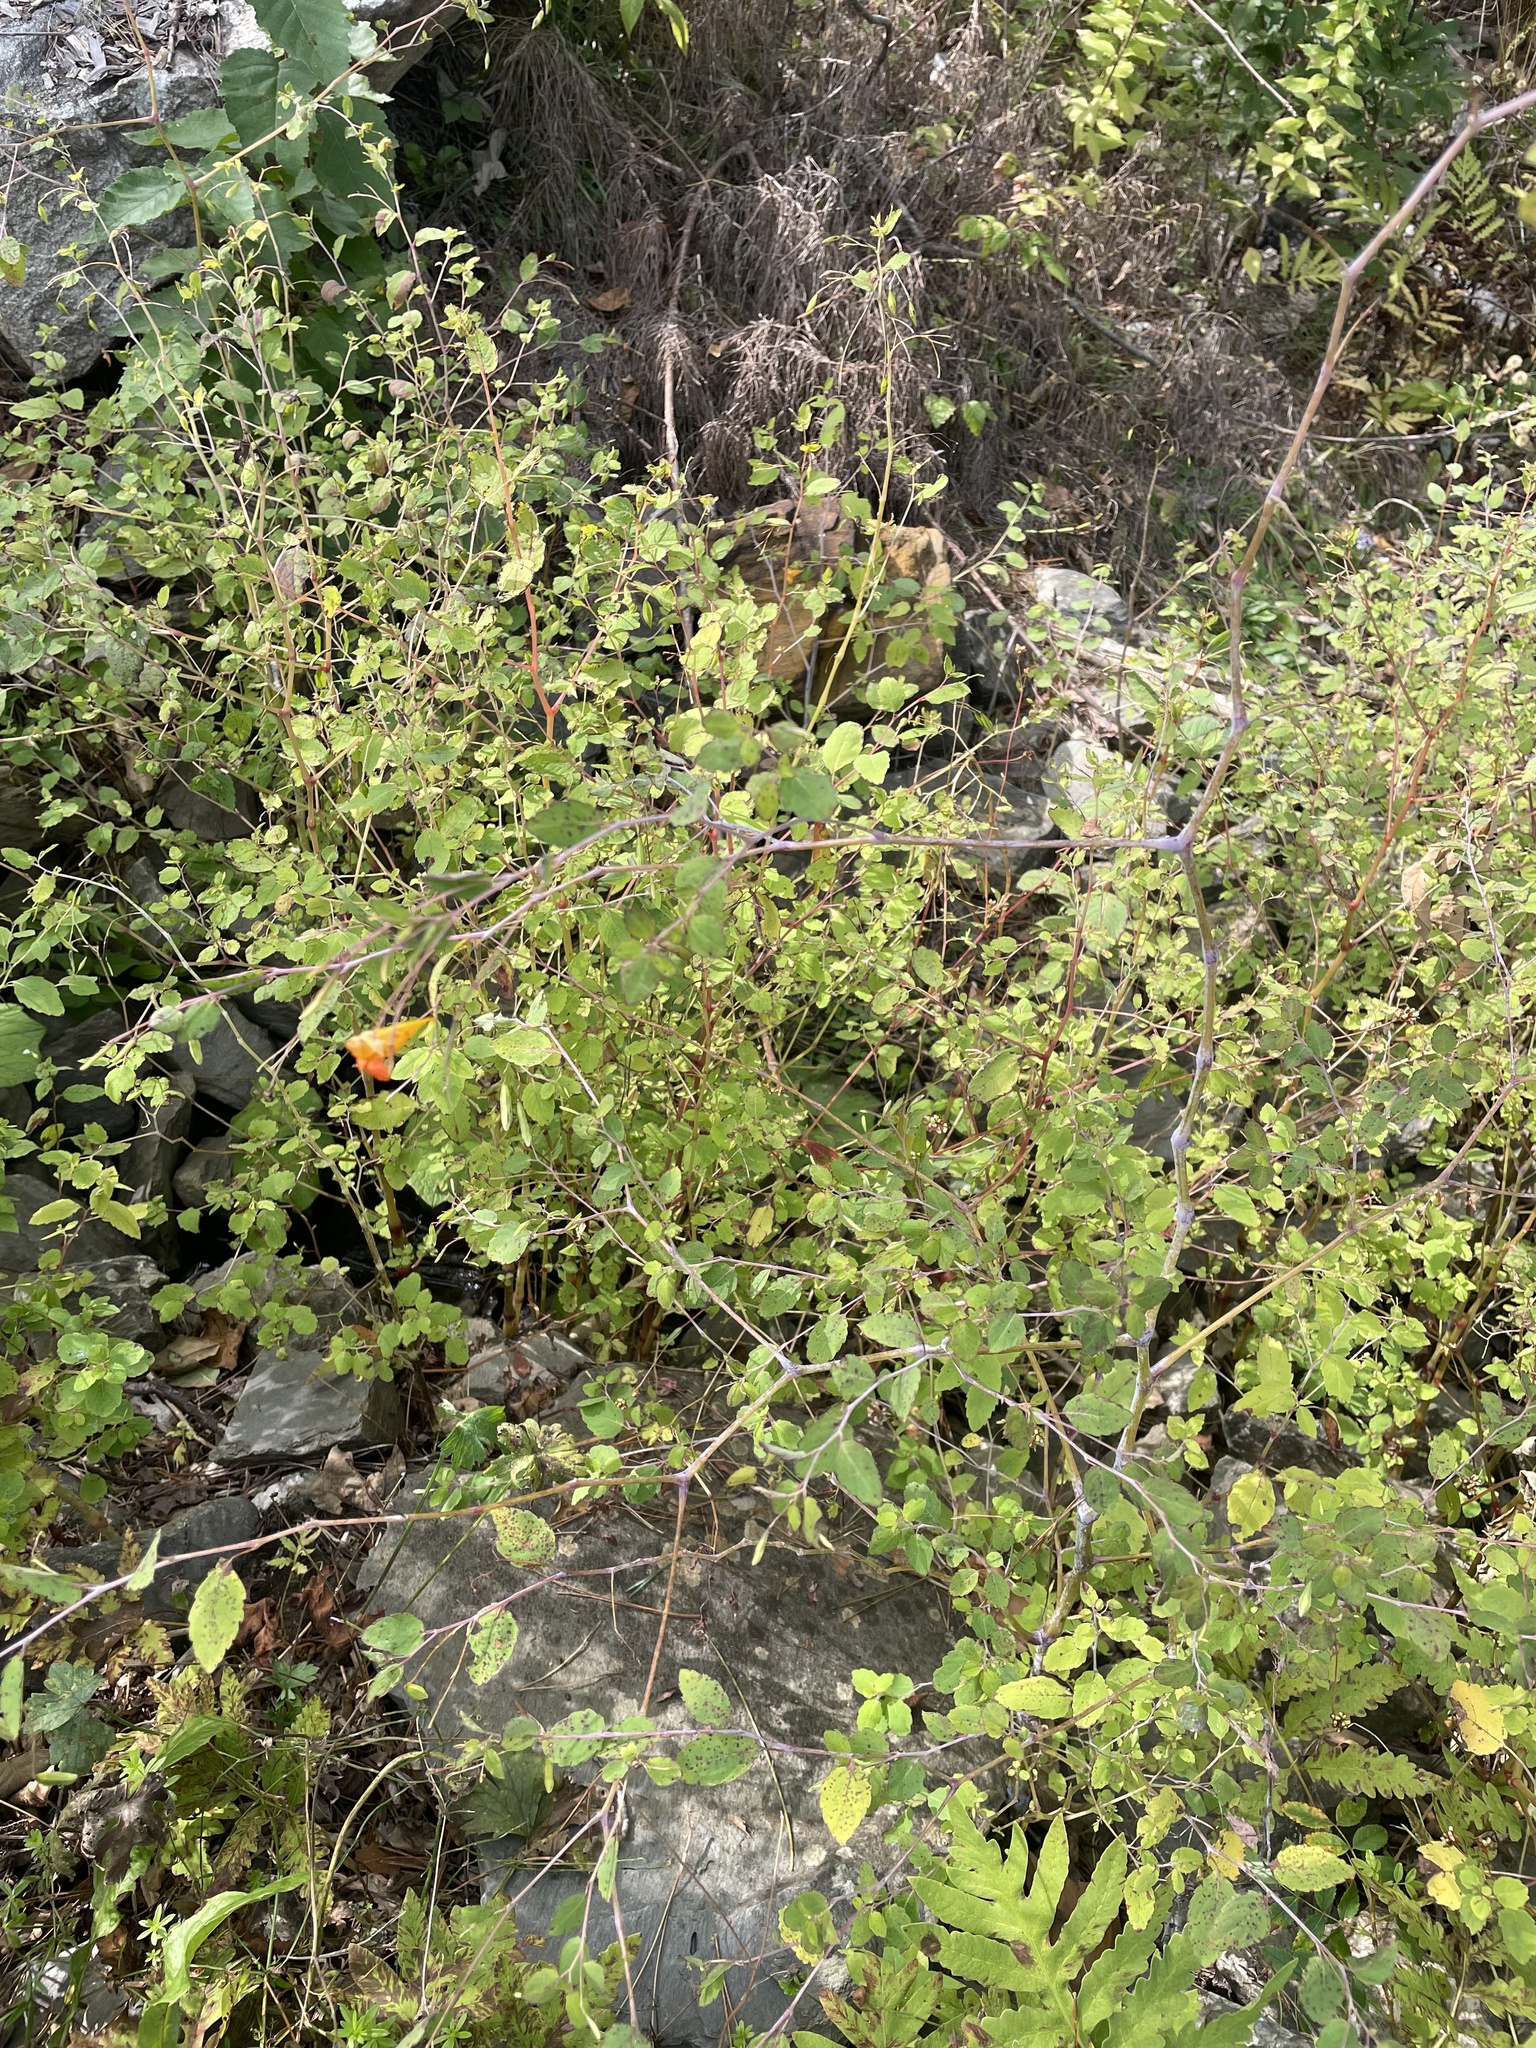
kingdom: Plantae
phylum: Tracheophyta
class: Magnoliopsida
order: Ericales
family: Balsaminaceae
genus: Impatiens
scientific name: Impatiens capensis
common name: Orange balsam
